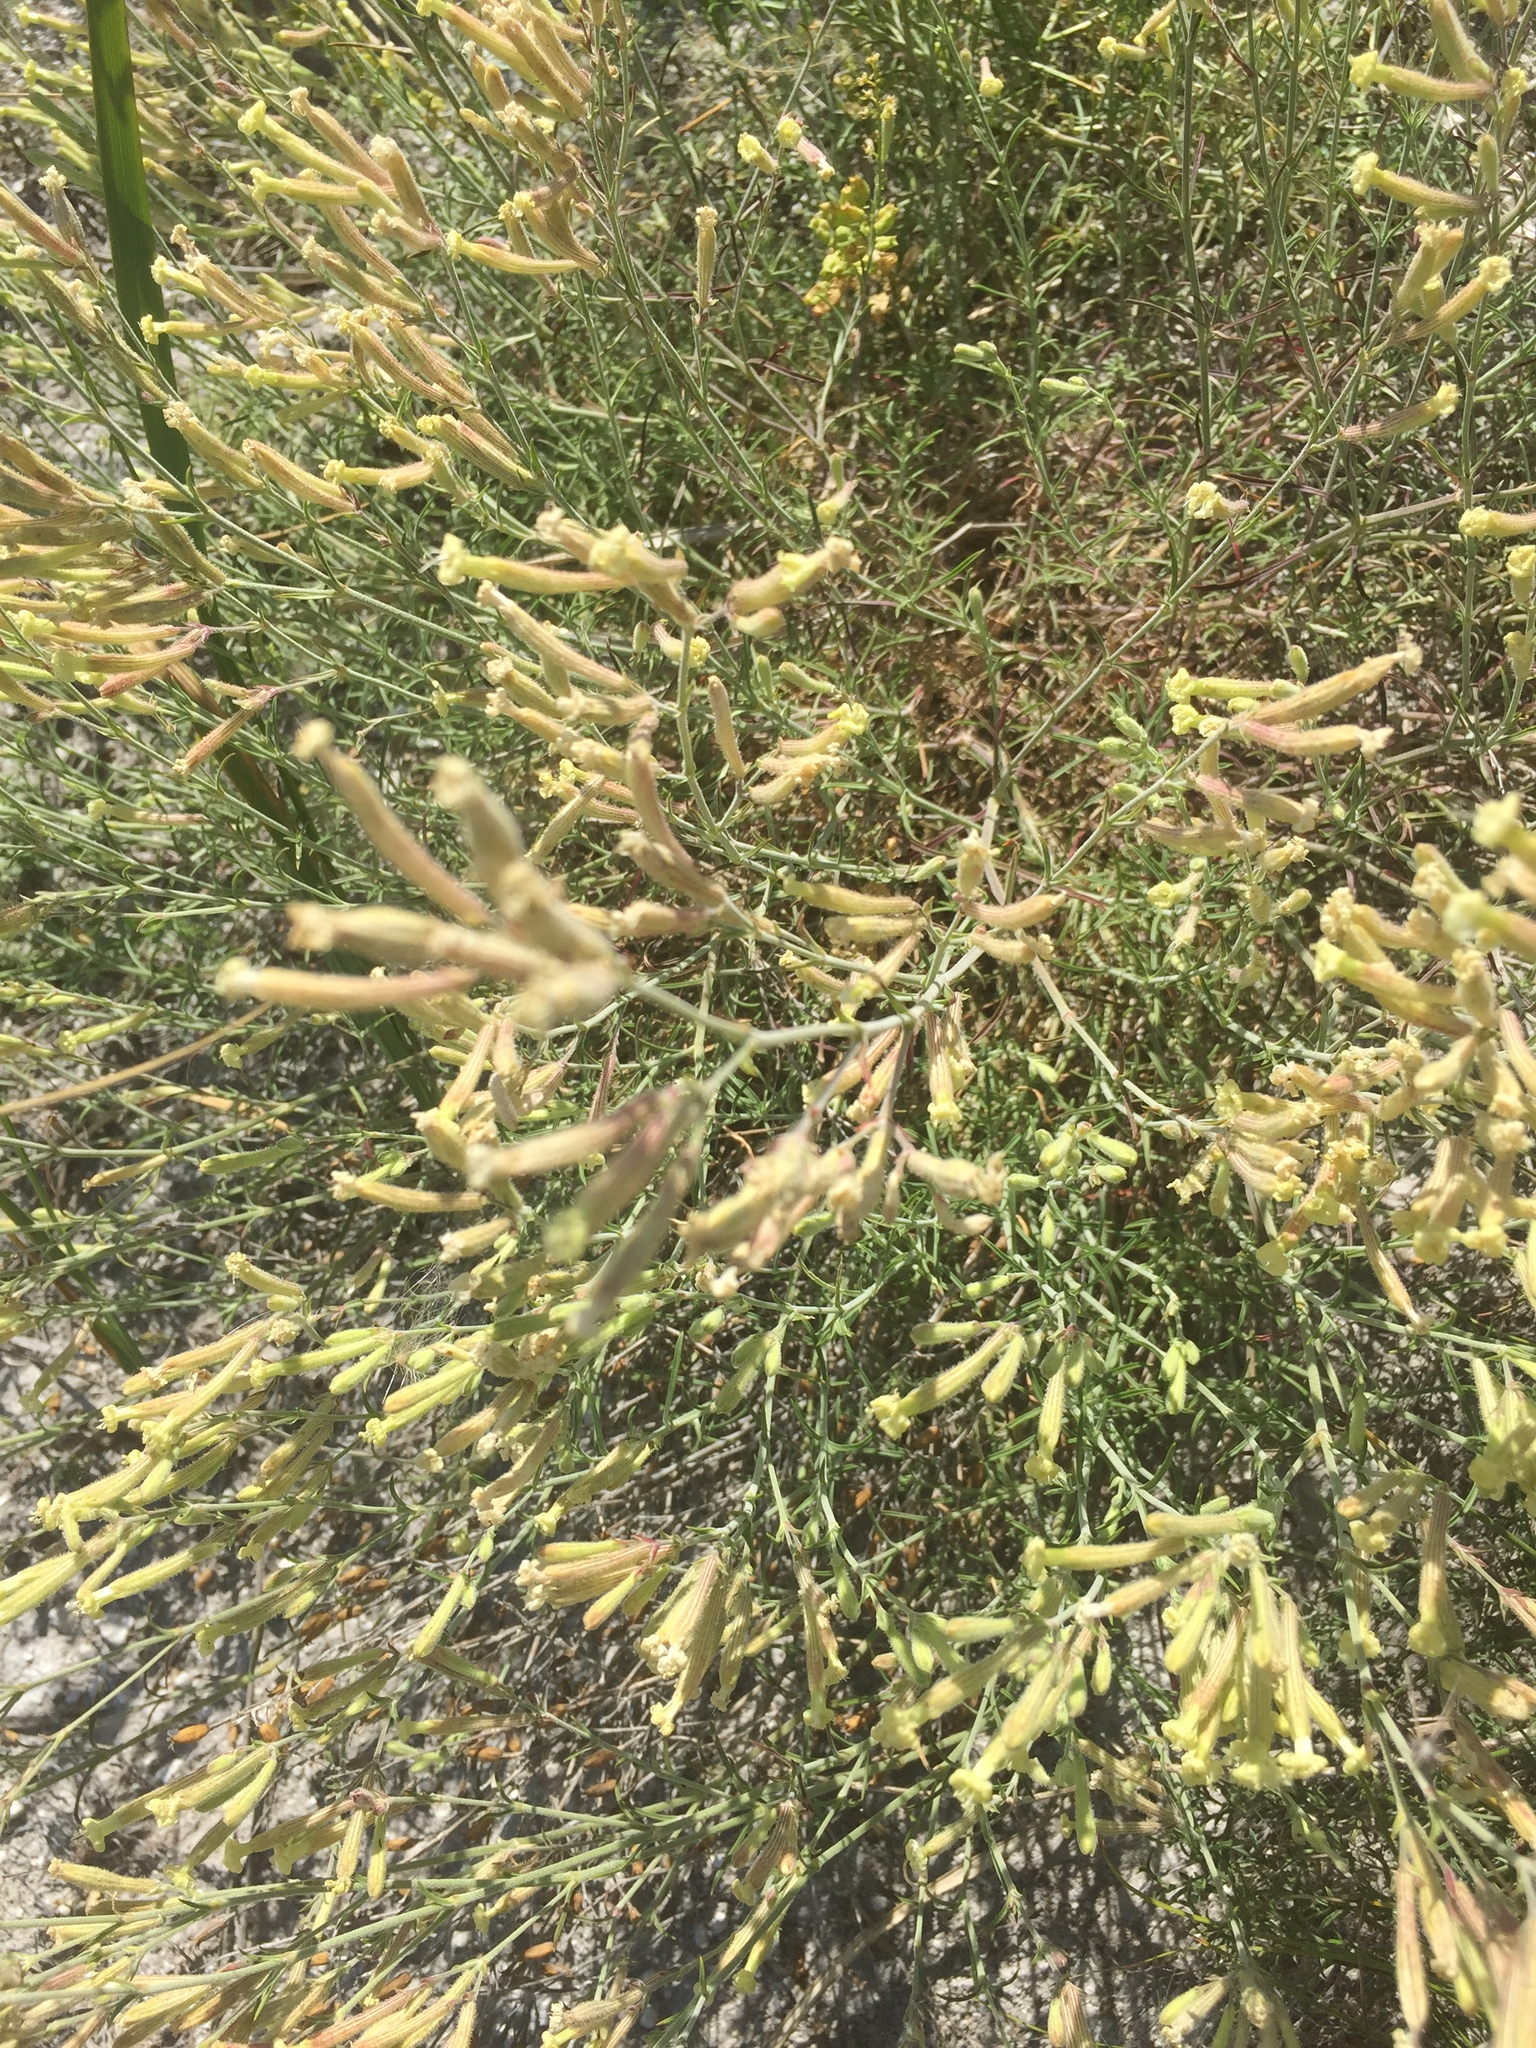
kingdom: Plantae
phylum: Tracheophyta
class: Magnoliopsida
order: Caryophyllales
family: Caryophyllaceae
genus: Silene
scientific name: Silene supina
